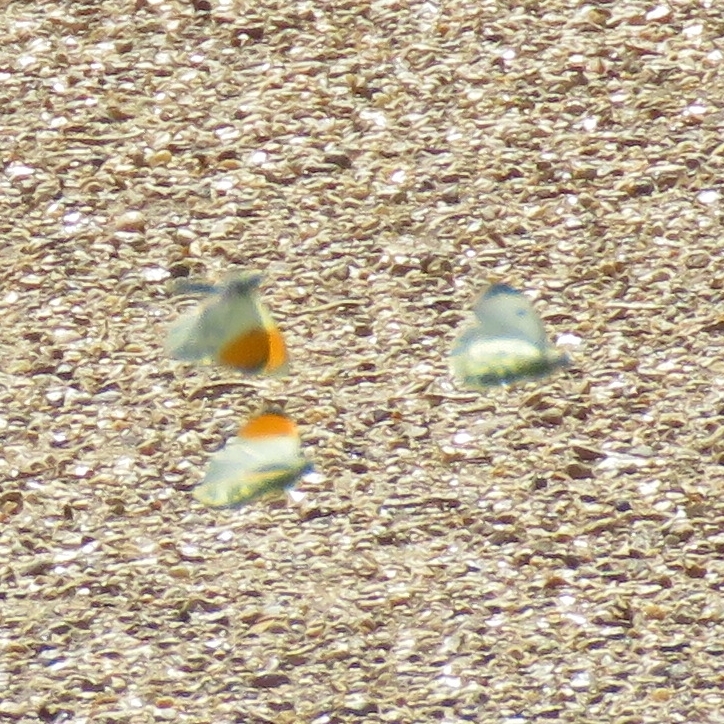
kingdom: Animalia
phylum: Arthropoda
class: Insecta
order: Lepidoptera
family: Pieridae
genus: Anthocharis
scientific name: Anthocharis cardamines
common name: Orange-tip
